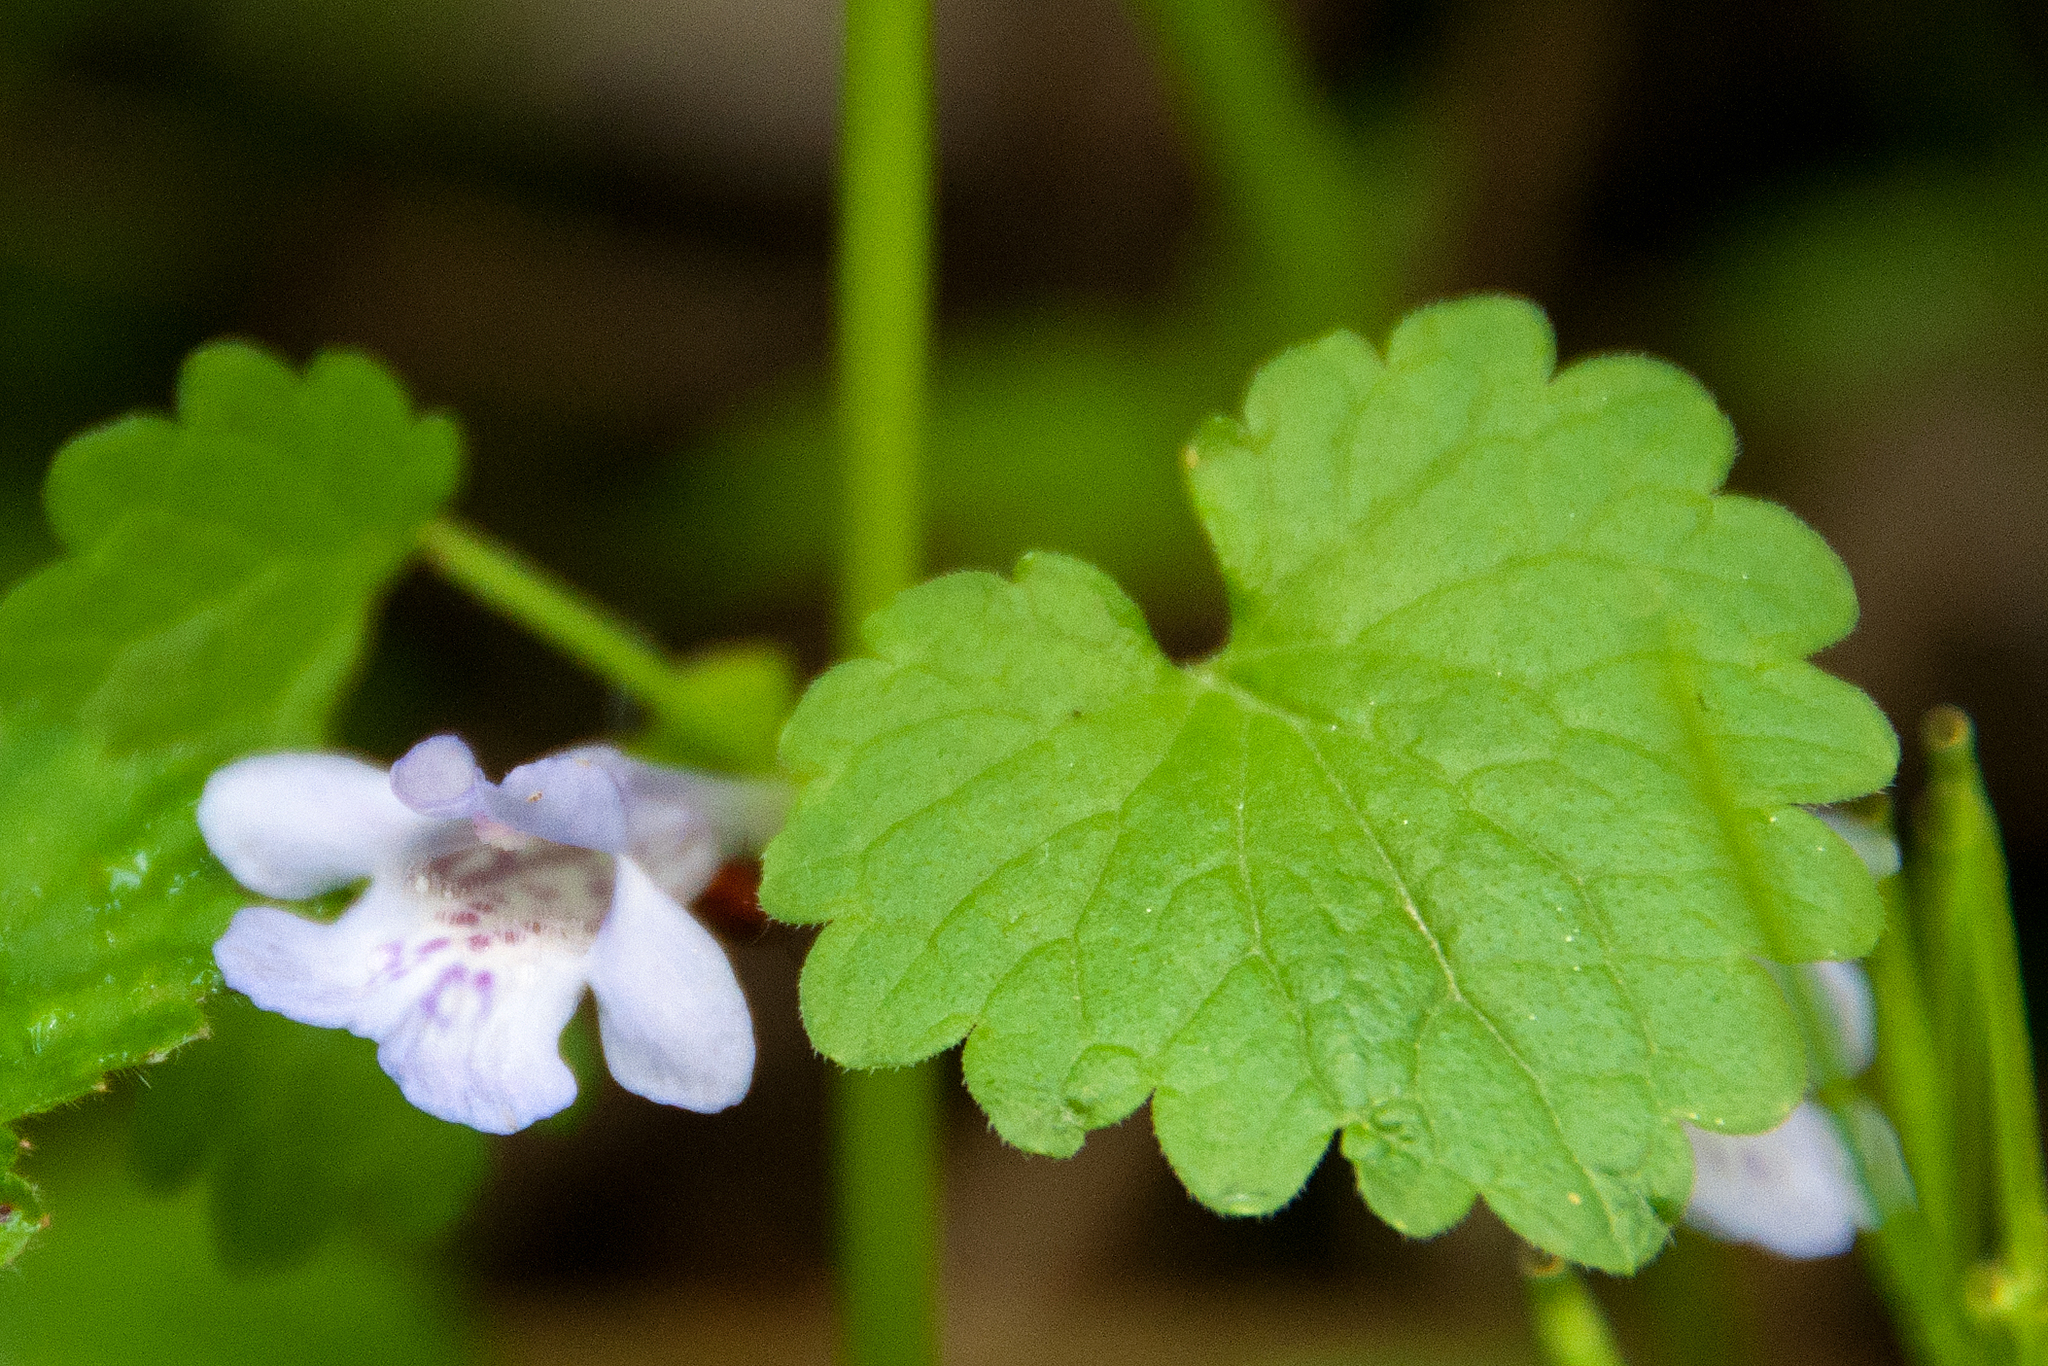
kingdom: Plantae
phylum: Tracheophyta
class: Magnoliopsida
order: Lamiales
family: Lamiaceae
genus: Glechoma
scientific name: Glechoma hederacea
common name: Ground ivy
